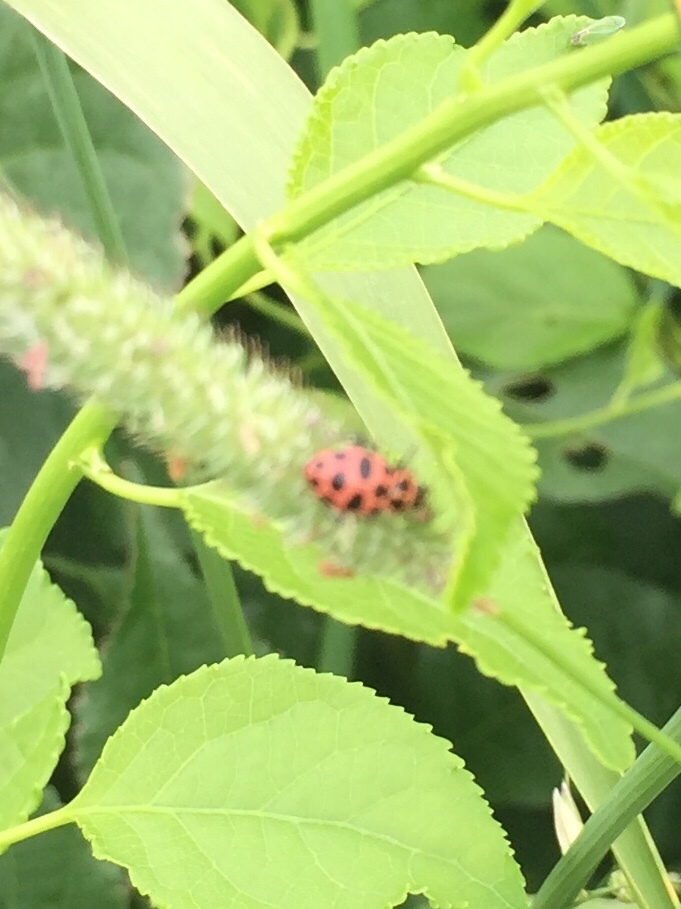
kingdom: Animalia
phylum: Arthropoda
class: Insecta
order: Coleoptera
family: Coccinellidae
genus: Coleomegilla
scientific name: Coleomegilla maculata
